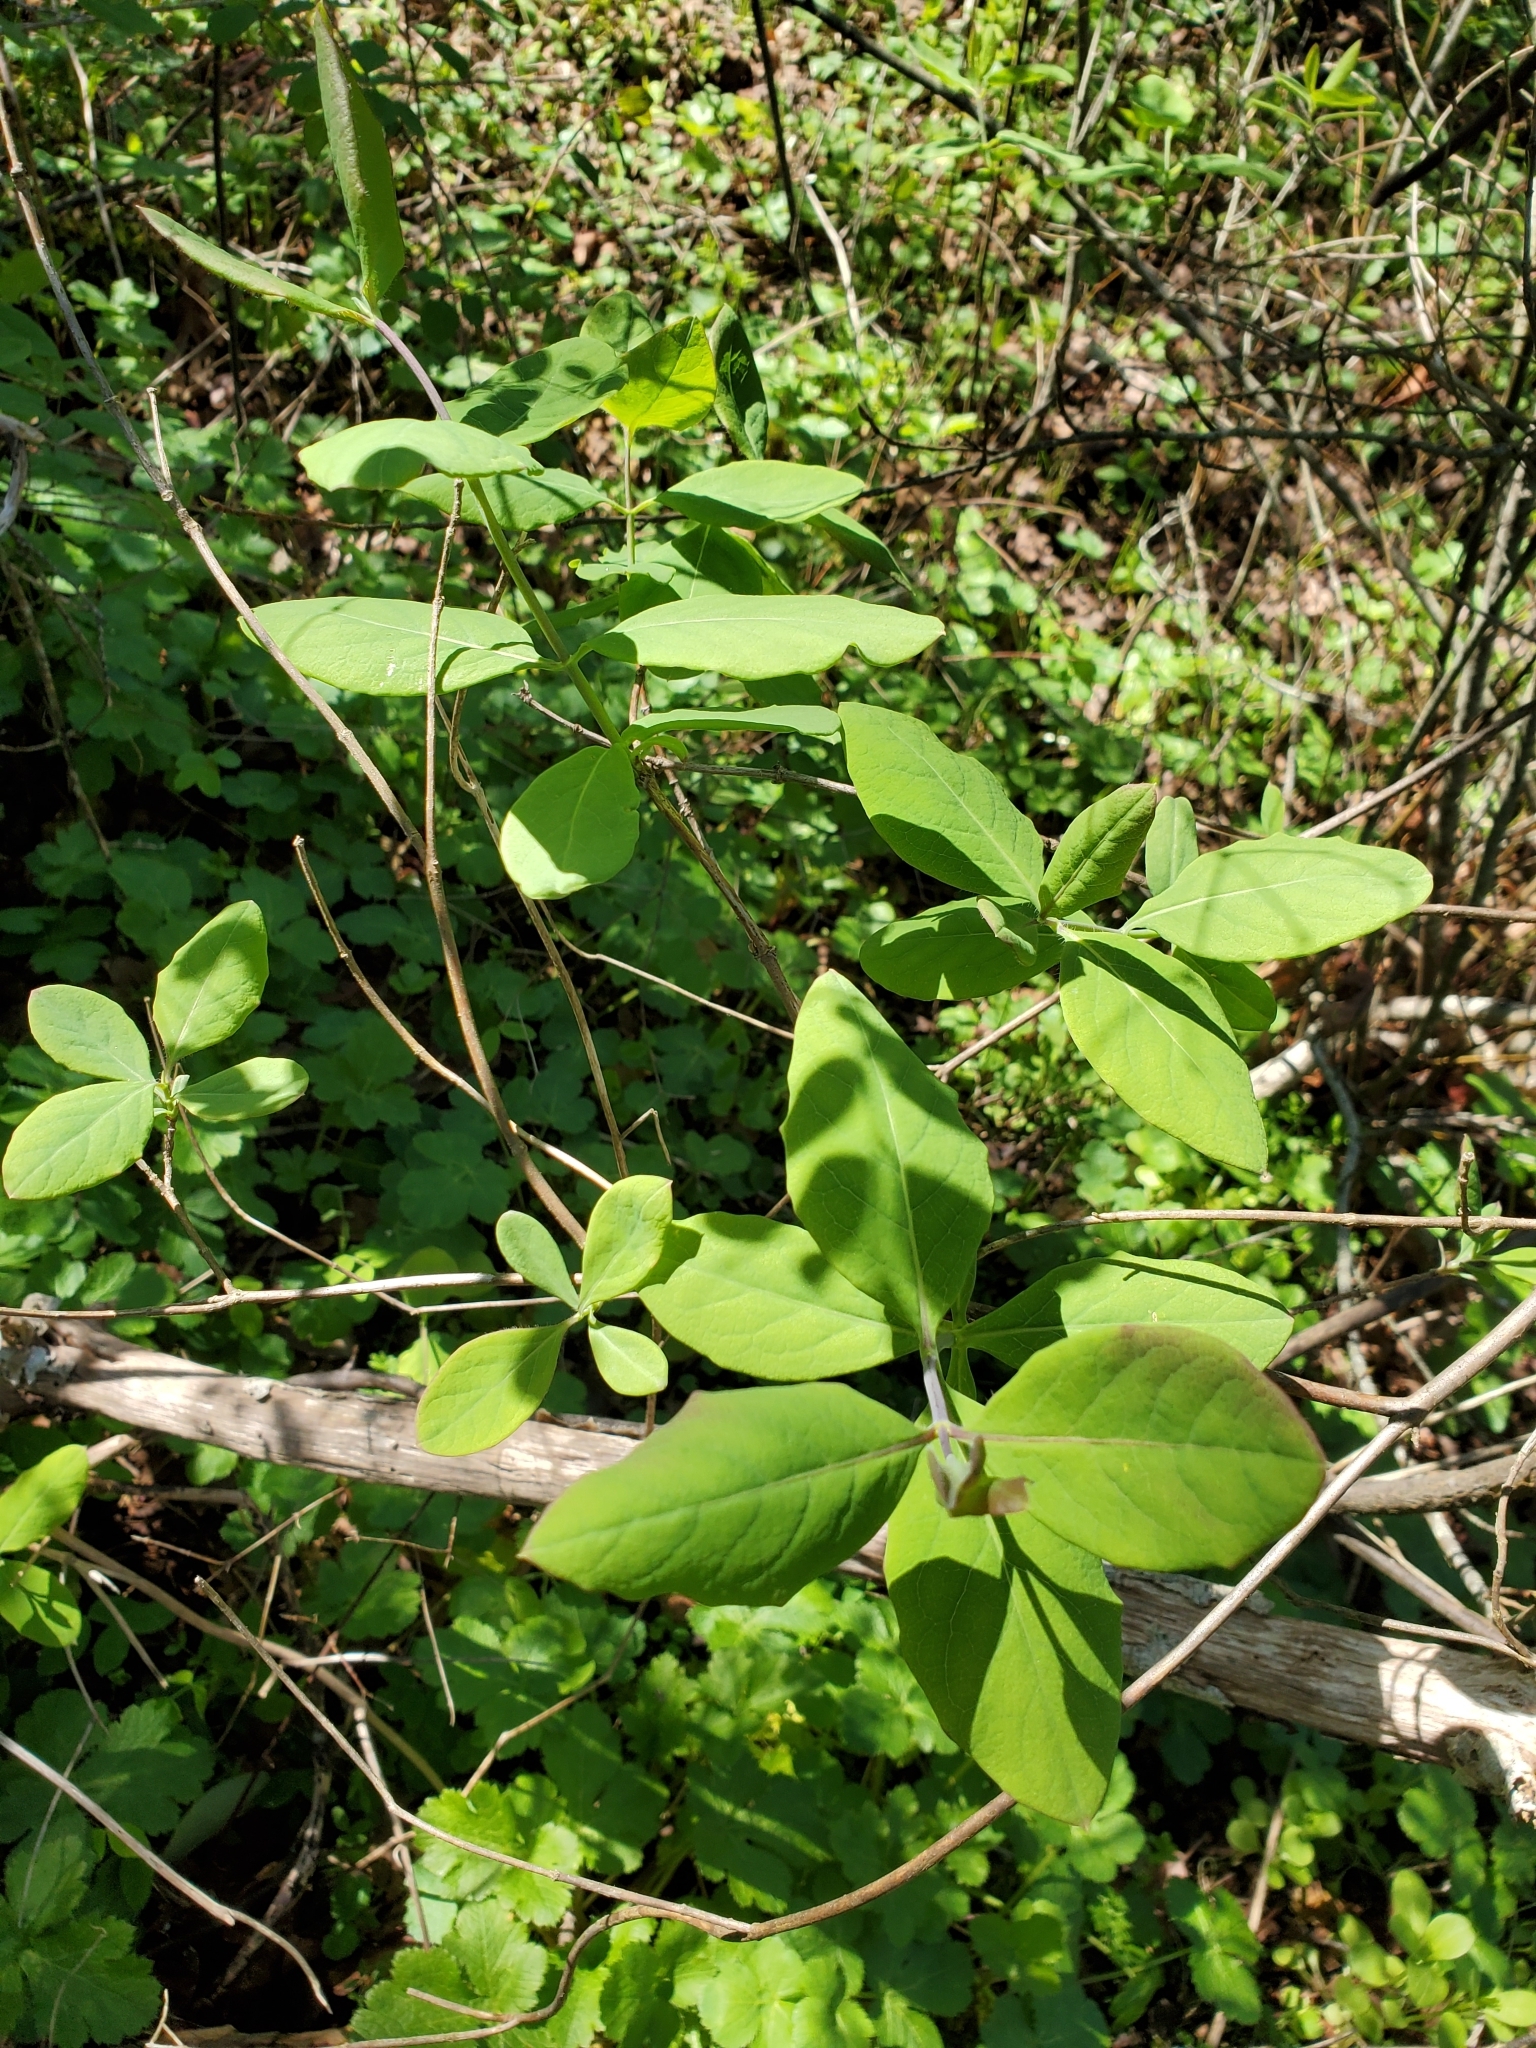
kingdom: Plantae
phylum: Tracheophyta
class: Magnoliopsida
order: Dipsacales
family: Caprifoliaceae
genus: Lonicera
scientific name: Lonicera ciliosa
